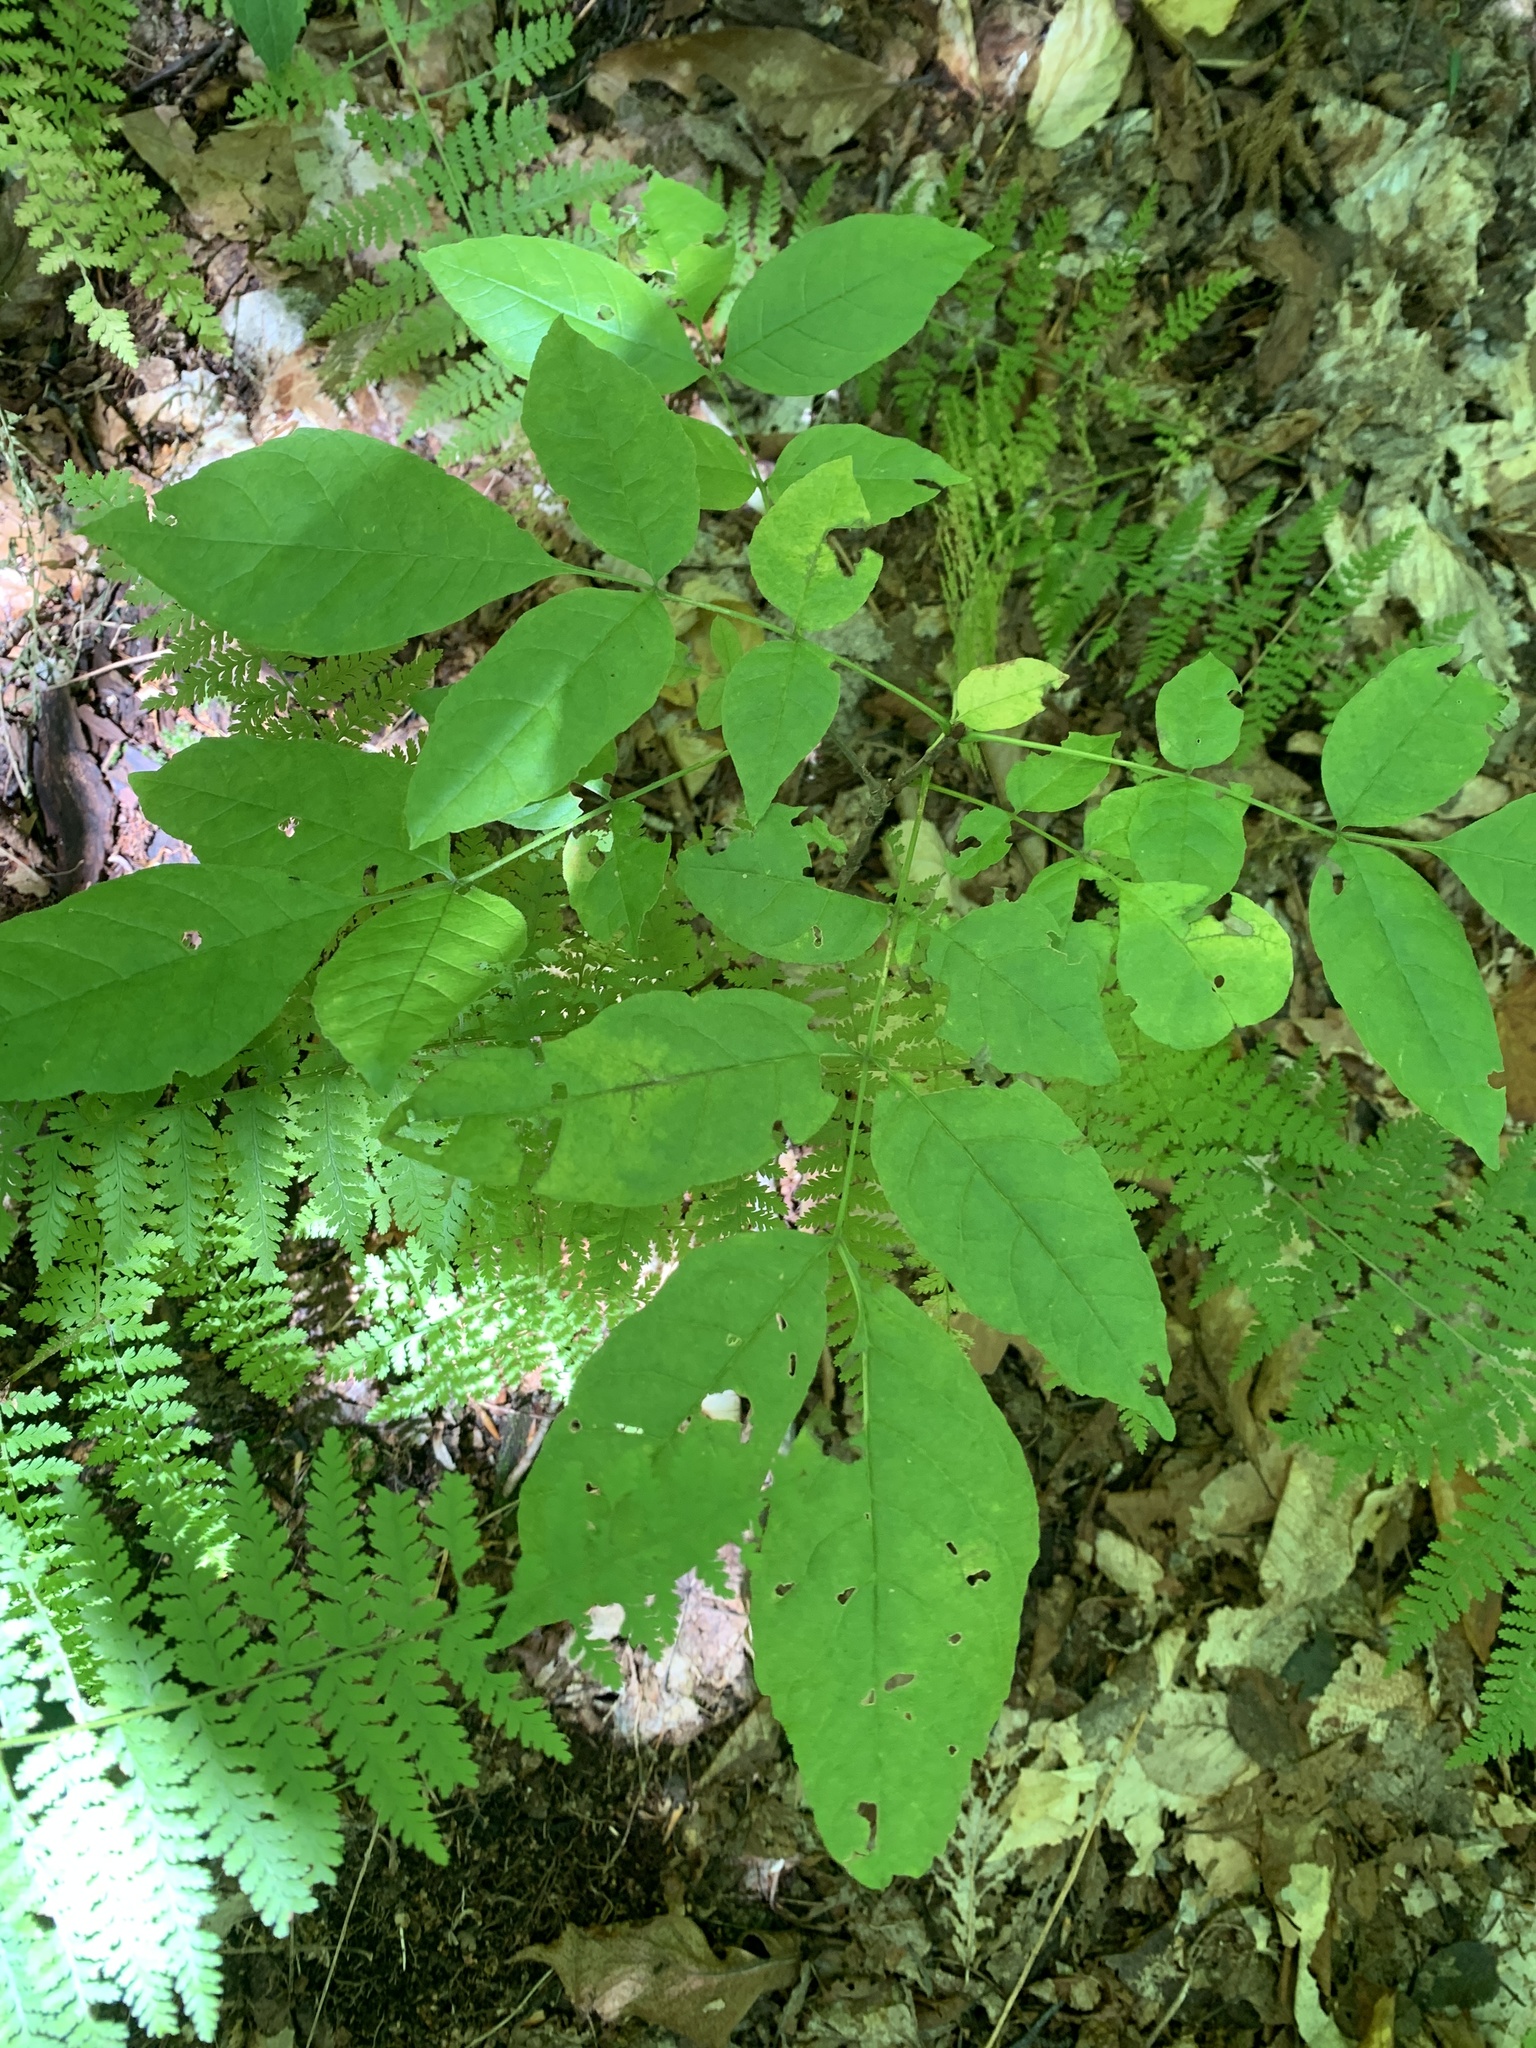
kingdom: Plantae
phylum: Tracheophyta
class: Magnoliopsida
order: Lamiales
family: Oleaceae
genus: Fraxinus
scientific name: Fraxinus americana
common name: White ash
